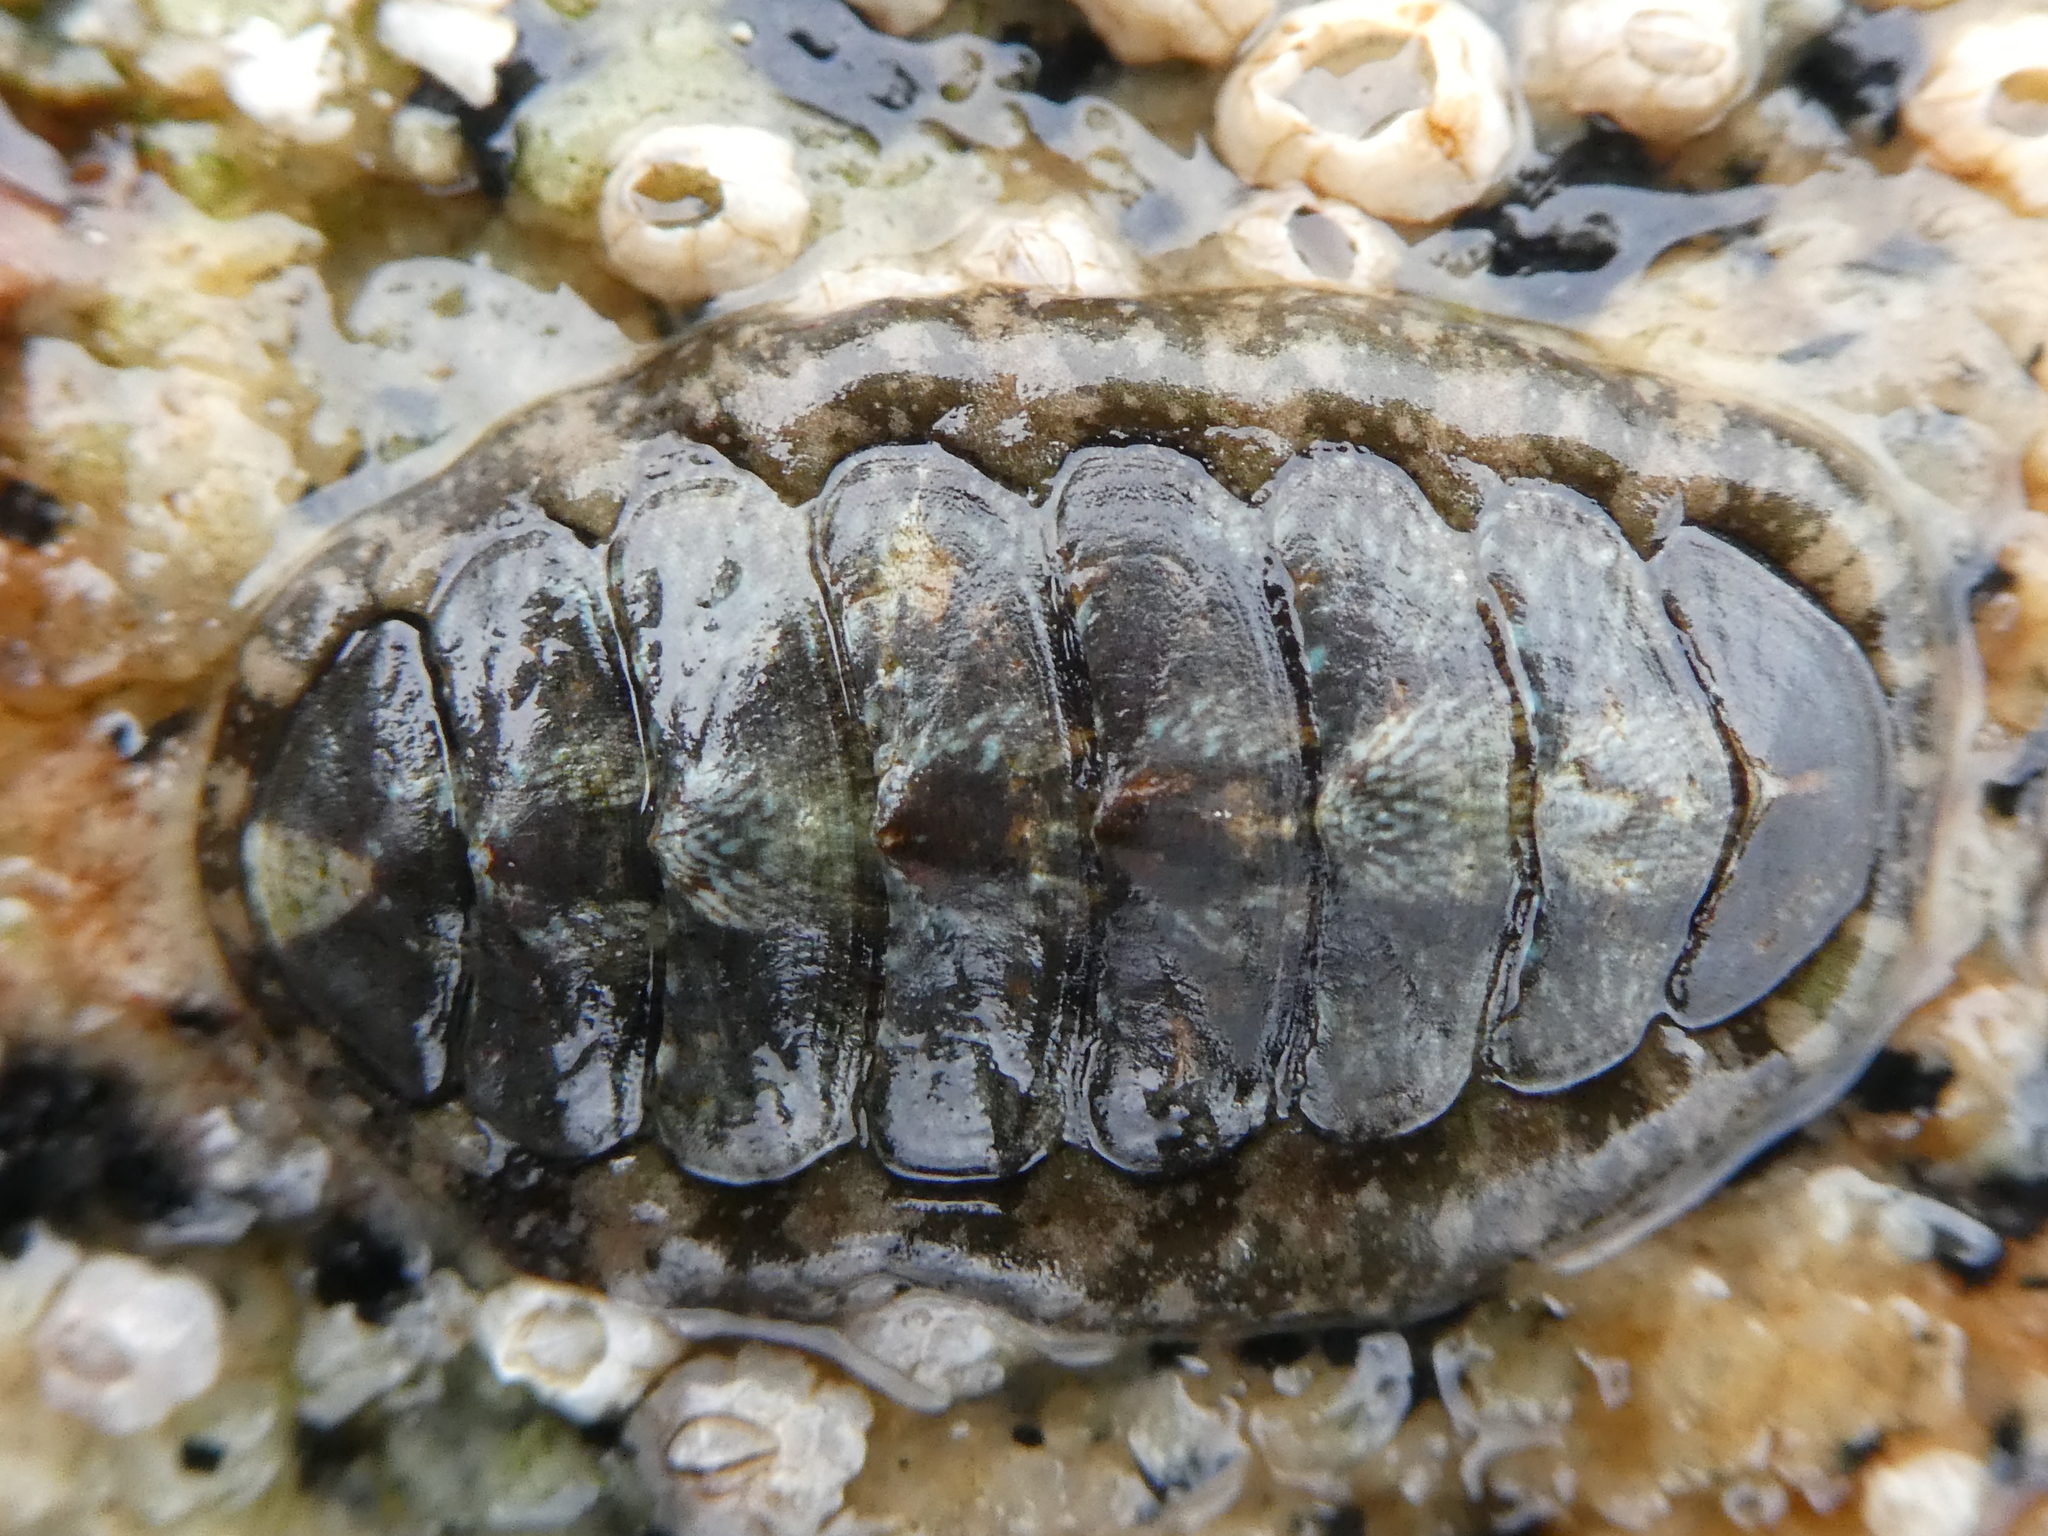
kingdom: Animalia
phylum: Mollusca
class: Polyplacophora
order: Chitonida
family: Tonicellidae
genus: Cyanoplax
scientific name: Cyanoplax dentiens
